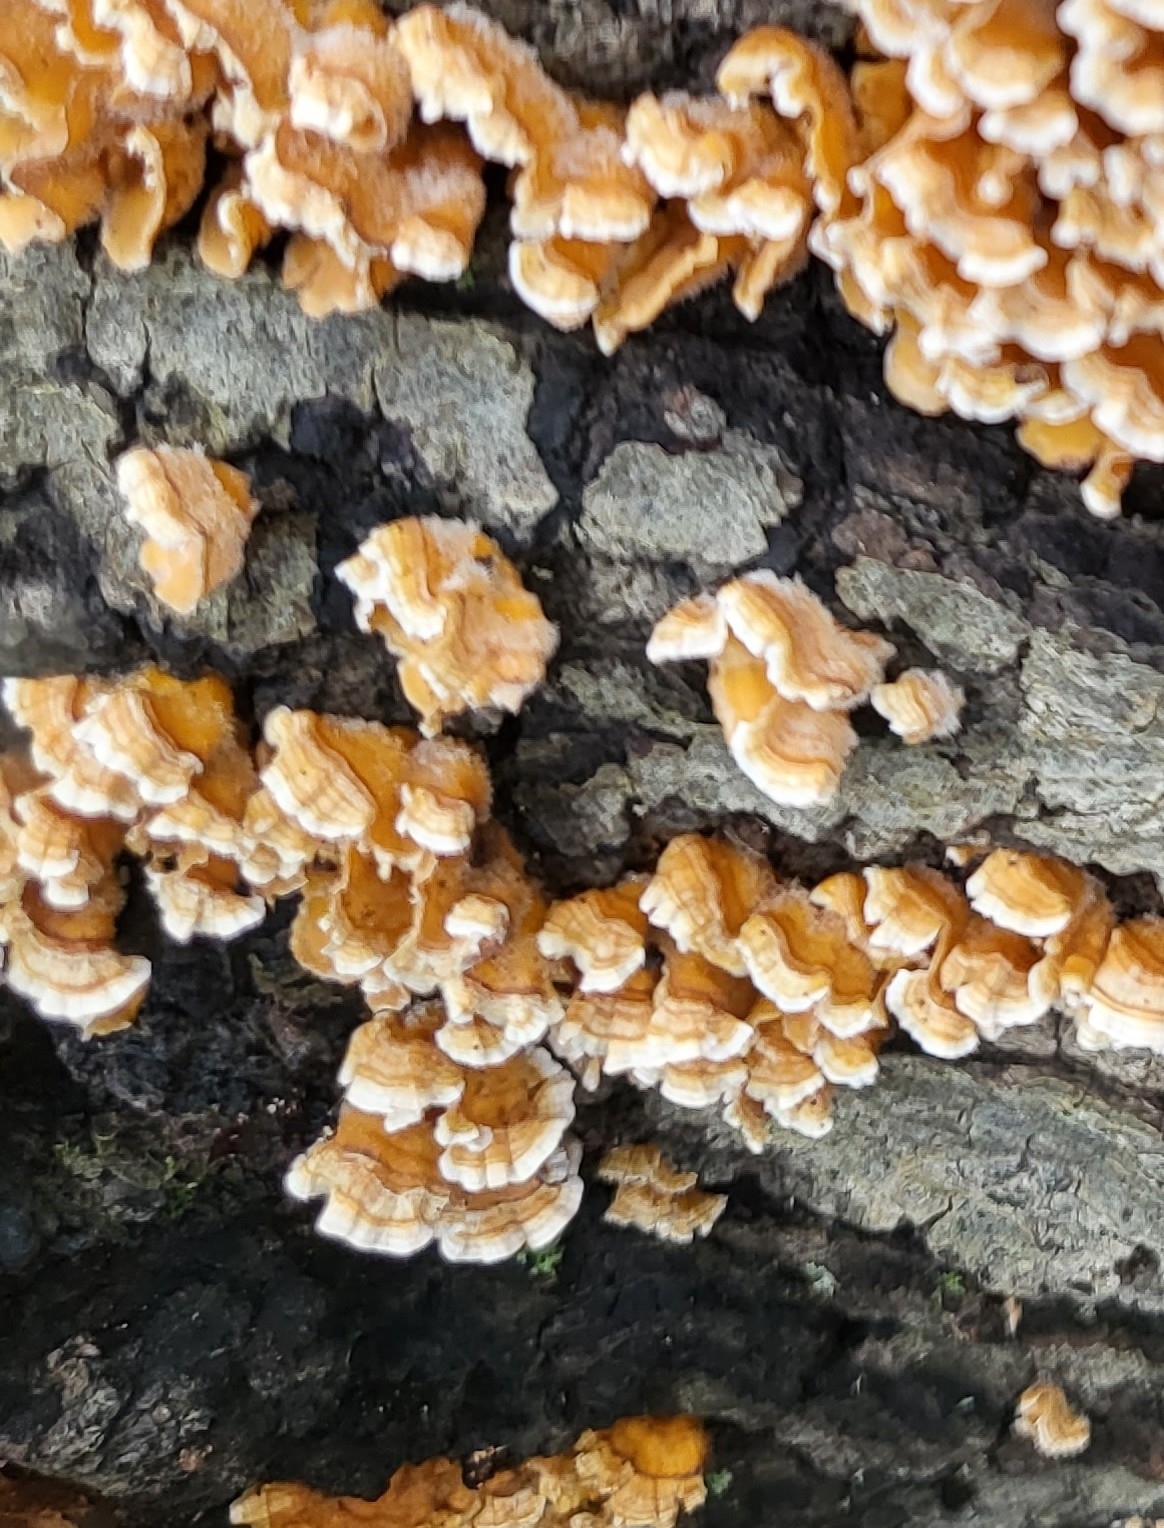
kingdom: Fungi
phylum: Basidiomycota
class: Agaricomycetes
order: Russulales
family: Stereaceae
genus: Stereum
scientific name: Stereum complicatum
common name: Crowded parchment
